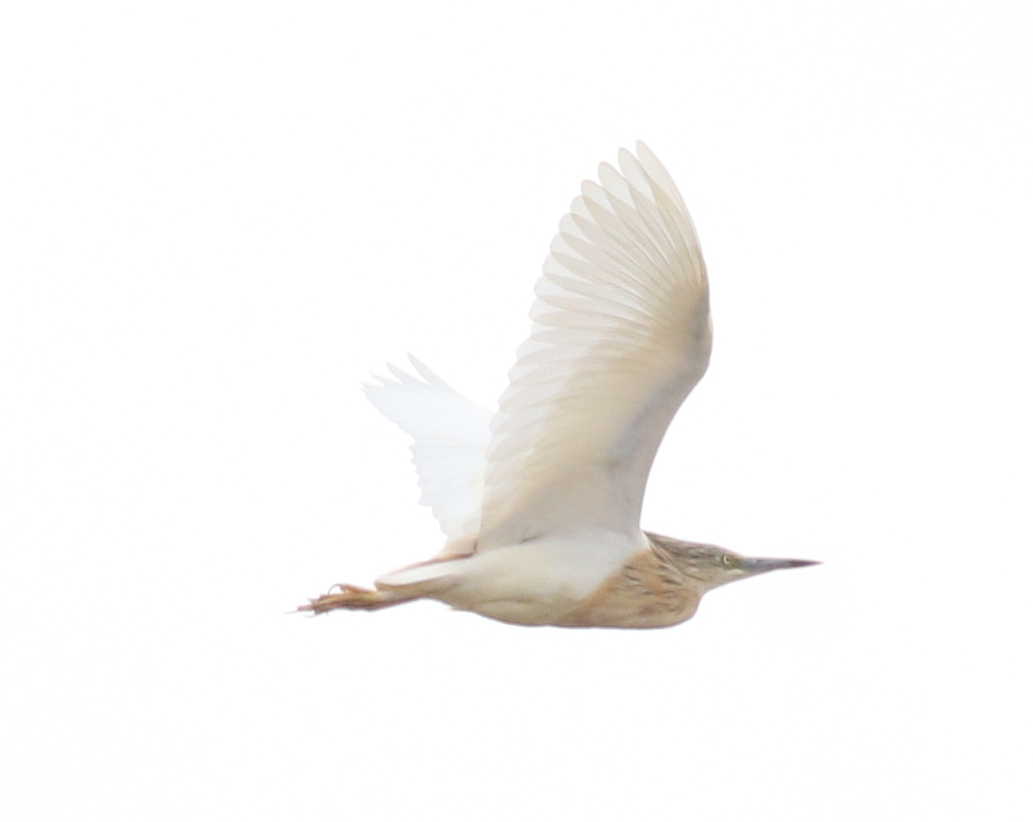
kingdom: Animalia
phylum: Chordata
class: Aves
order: Pelecaniformes
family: Ardeidae
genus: Ardeola
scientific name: Ardeola ralloides
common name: Squacco heron
